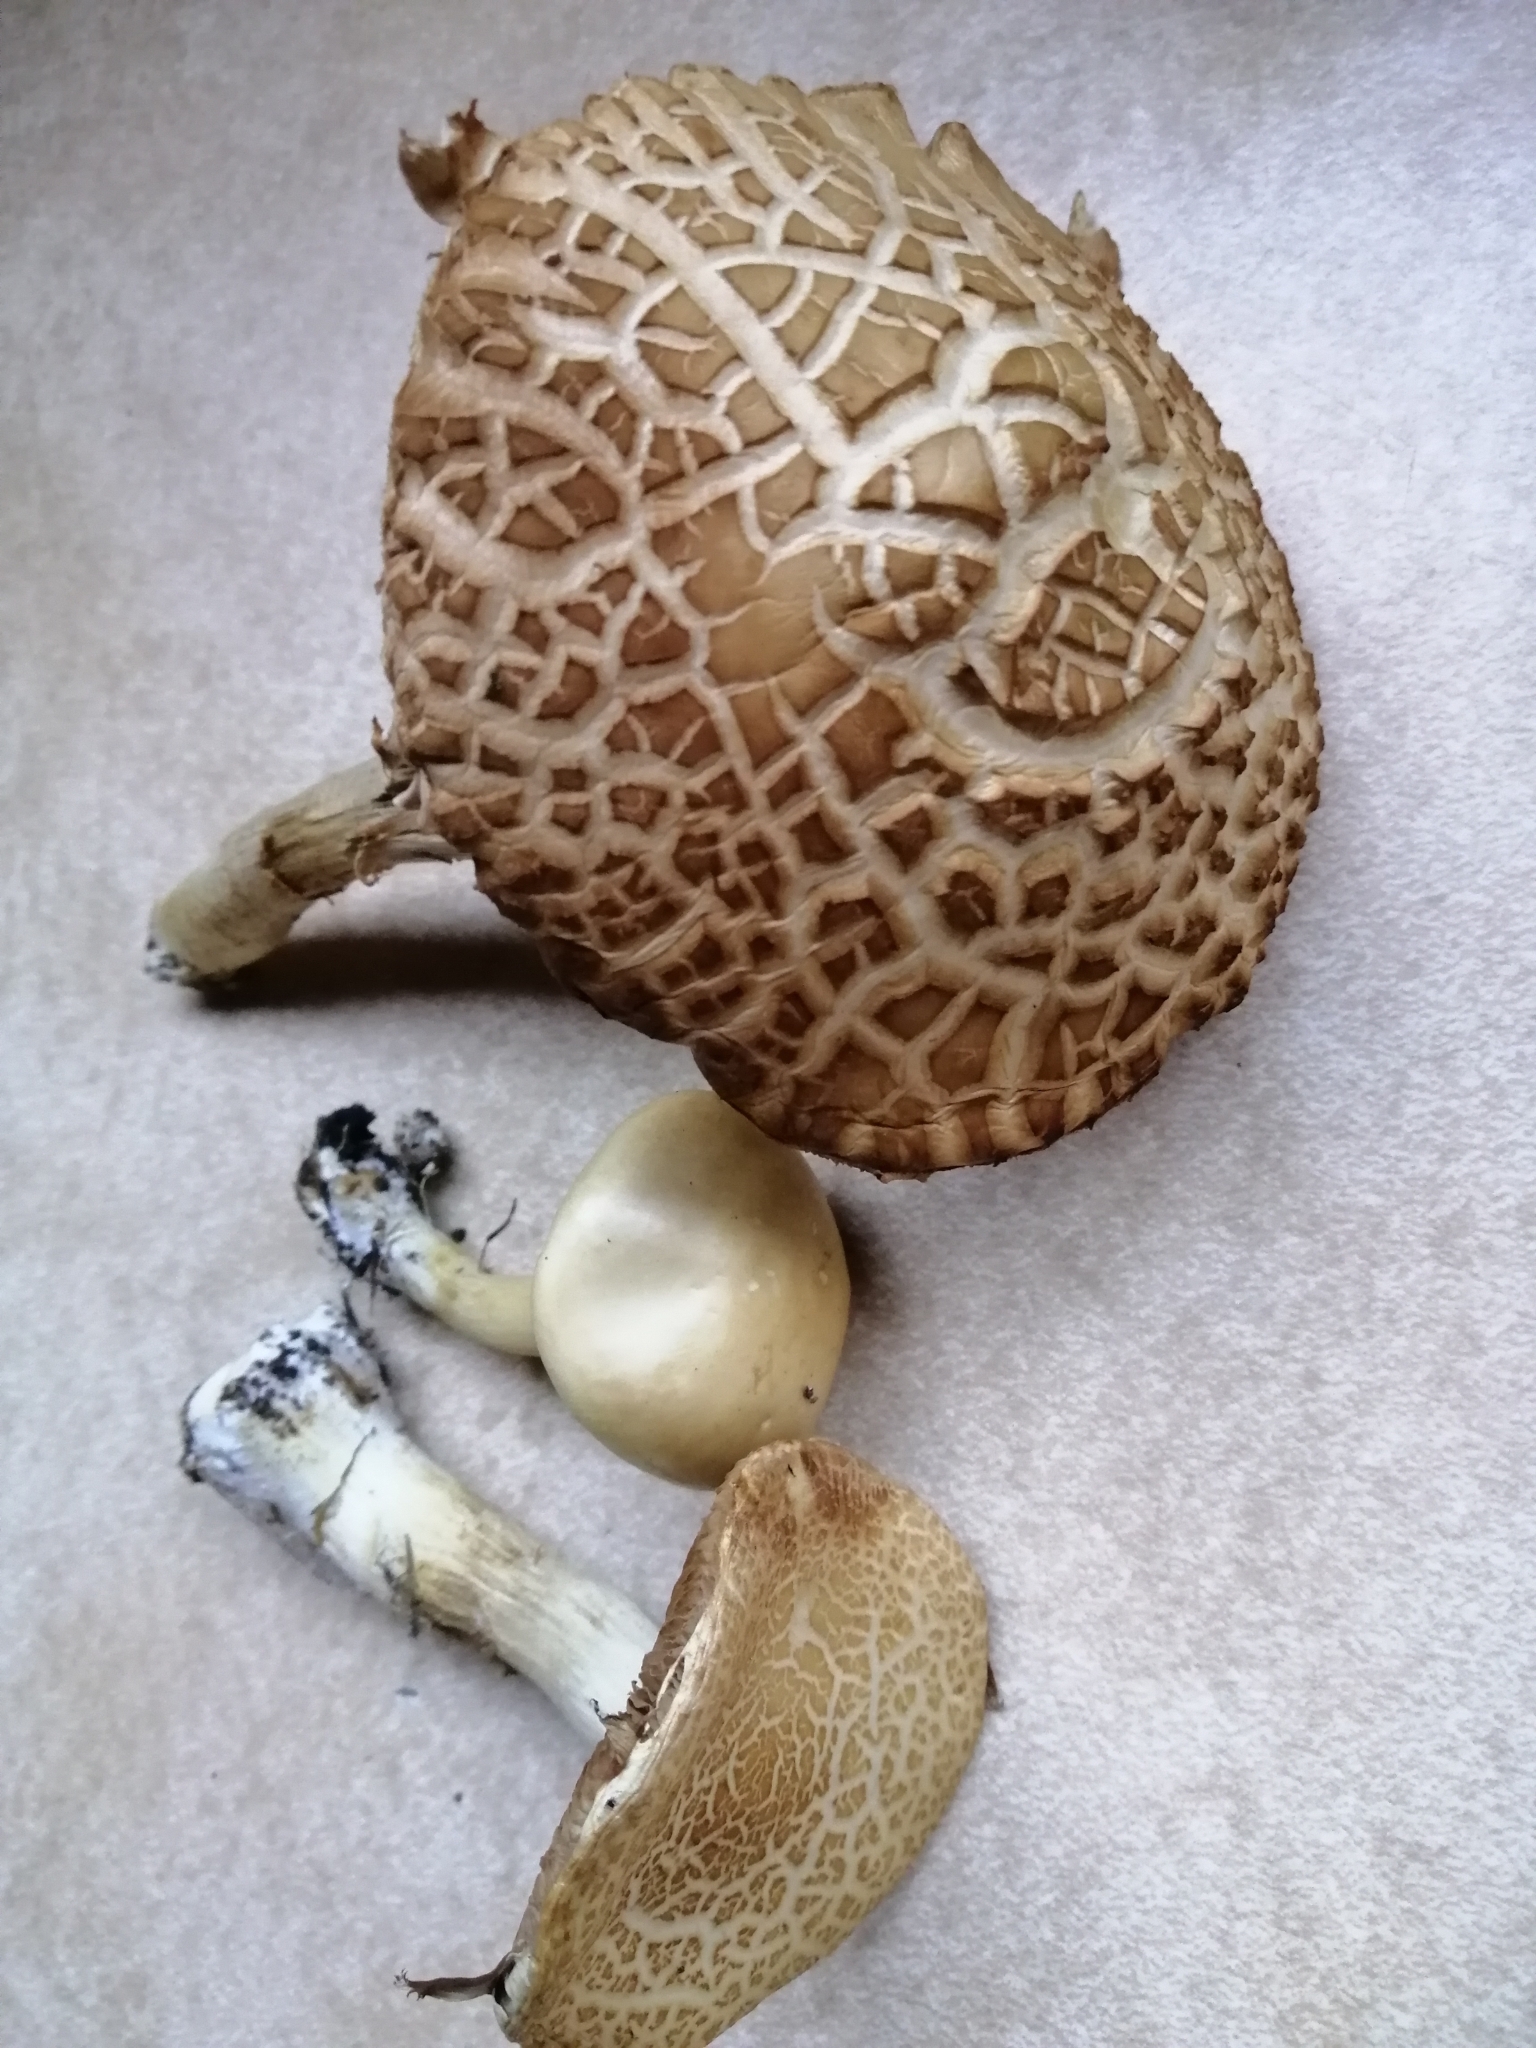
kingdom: Fungi
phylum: Basidiomycota
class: Agaricomycetes
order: Agaricales
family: Strophariaceae
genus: Agrocybe
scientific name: Agrocybe praecox
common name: Spring fieldcap
